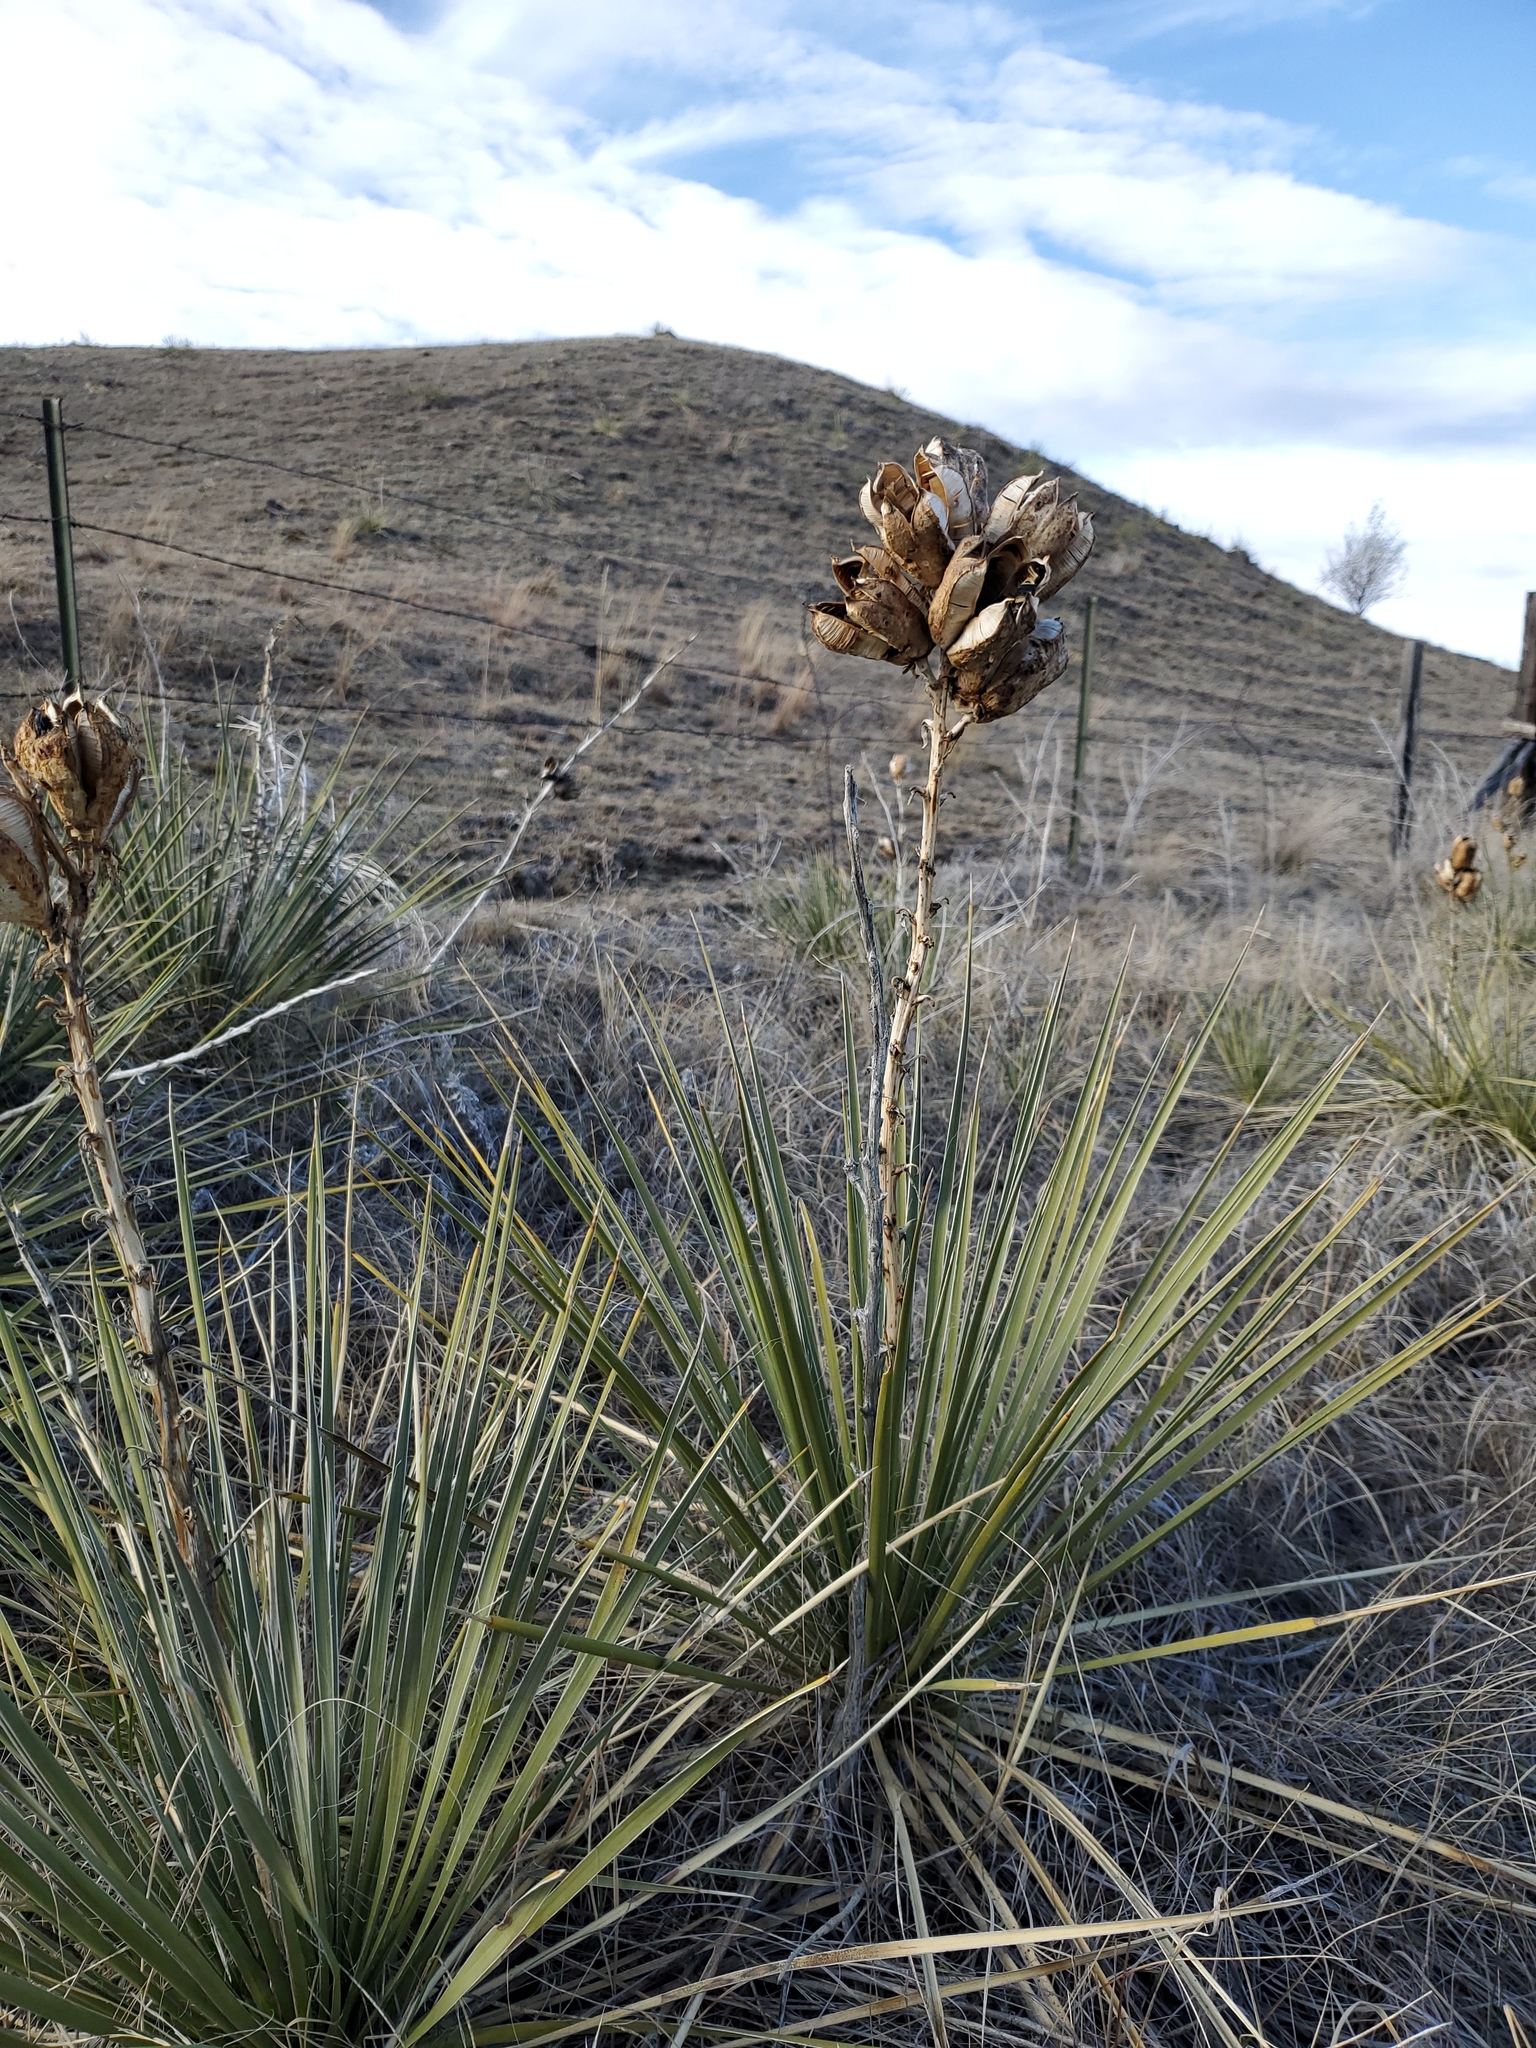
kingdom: Plantae
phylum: Tracheophyta
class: Liliopsida
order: Asparagales
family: Asparagaceae
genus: Yucca
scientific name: Yucca glauca
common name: Great plains yucca
